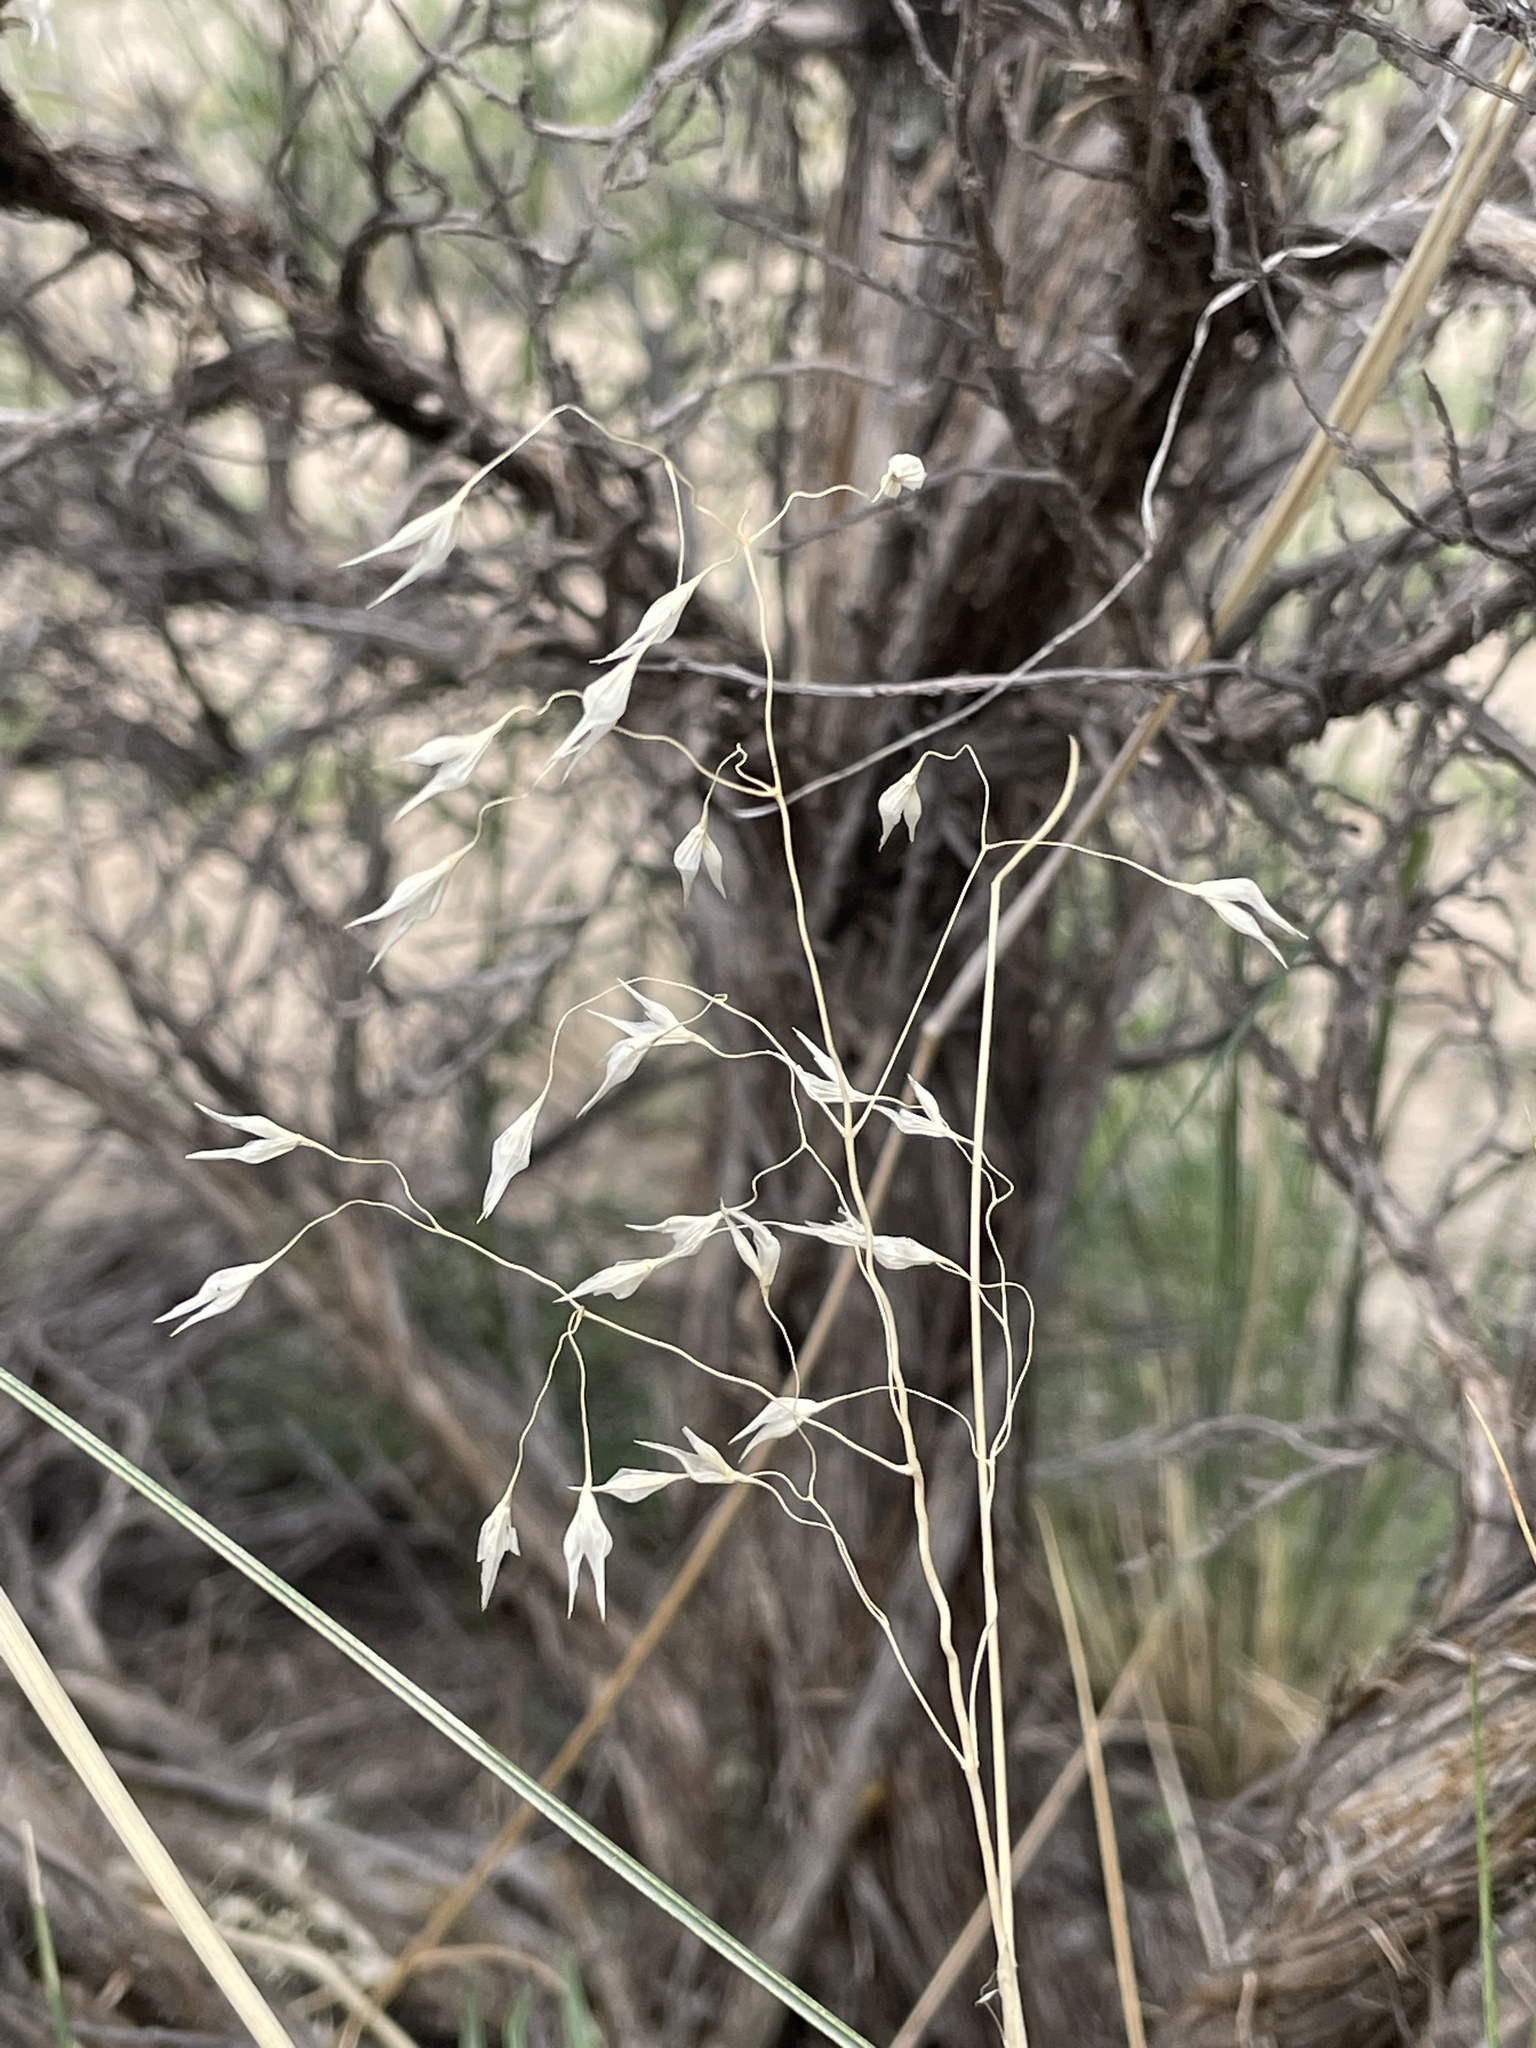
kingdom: Plantae
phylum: Tracheophyta
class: Liliopsida
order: Poales
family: Poaceae
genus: Eriocoma
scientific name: Eriocoma hymenoides
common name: Indian mountain ricegrass
